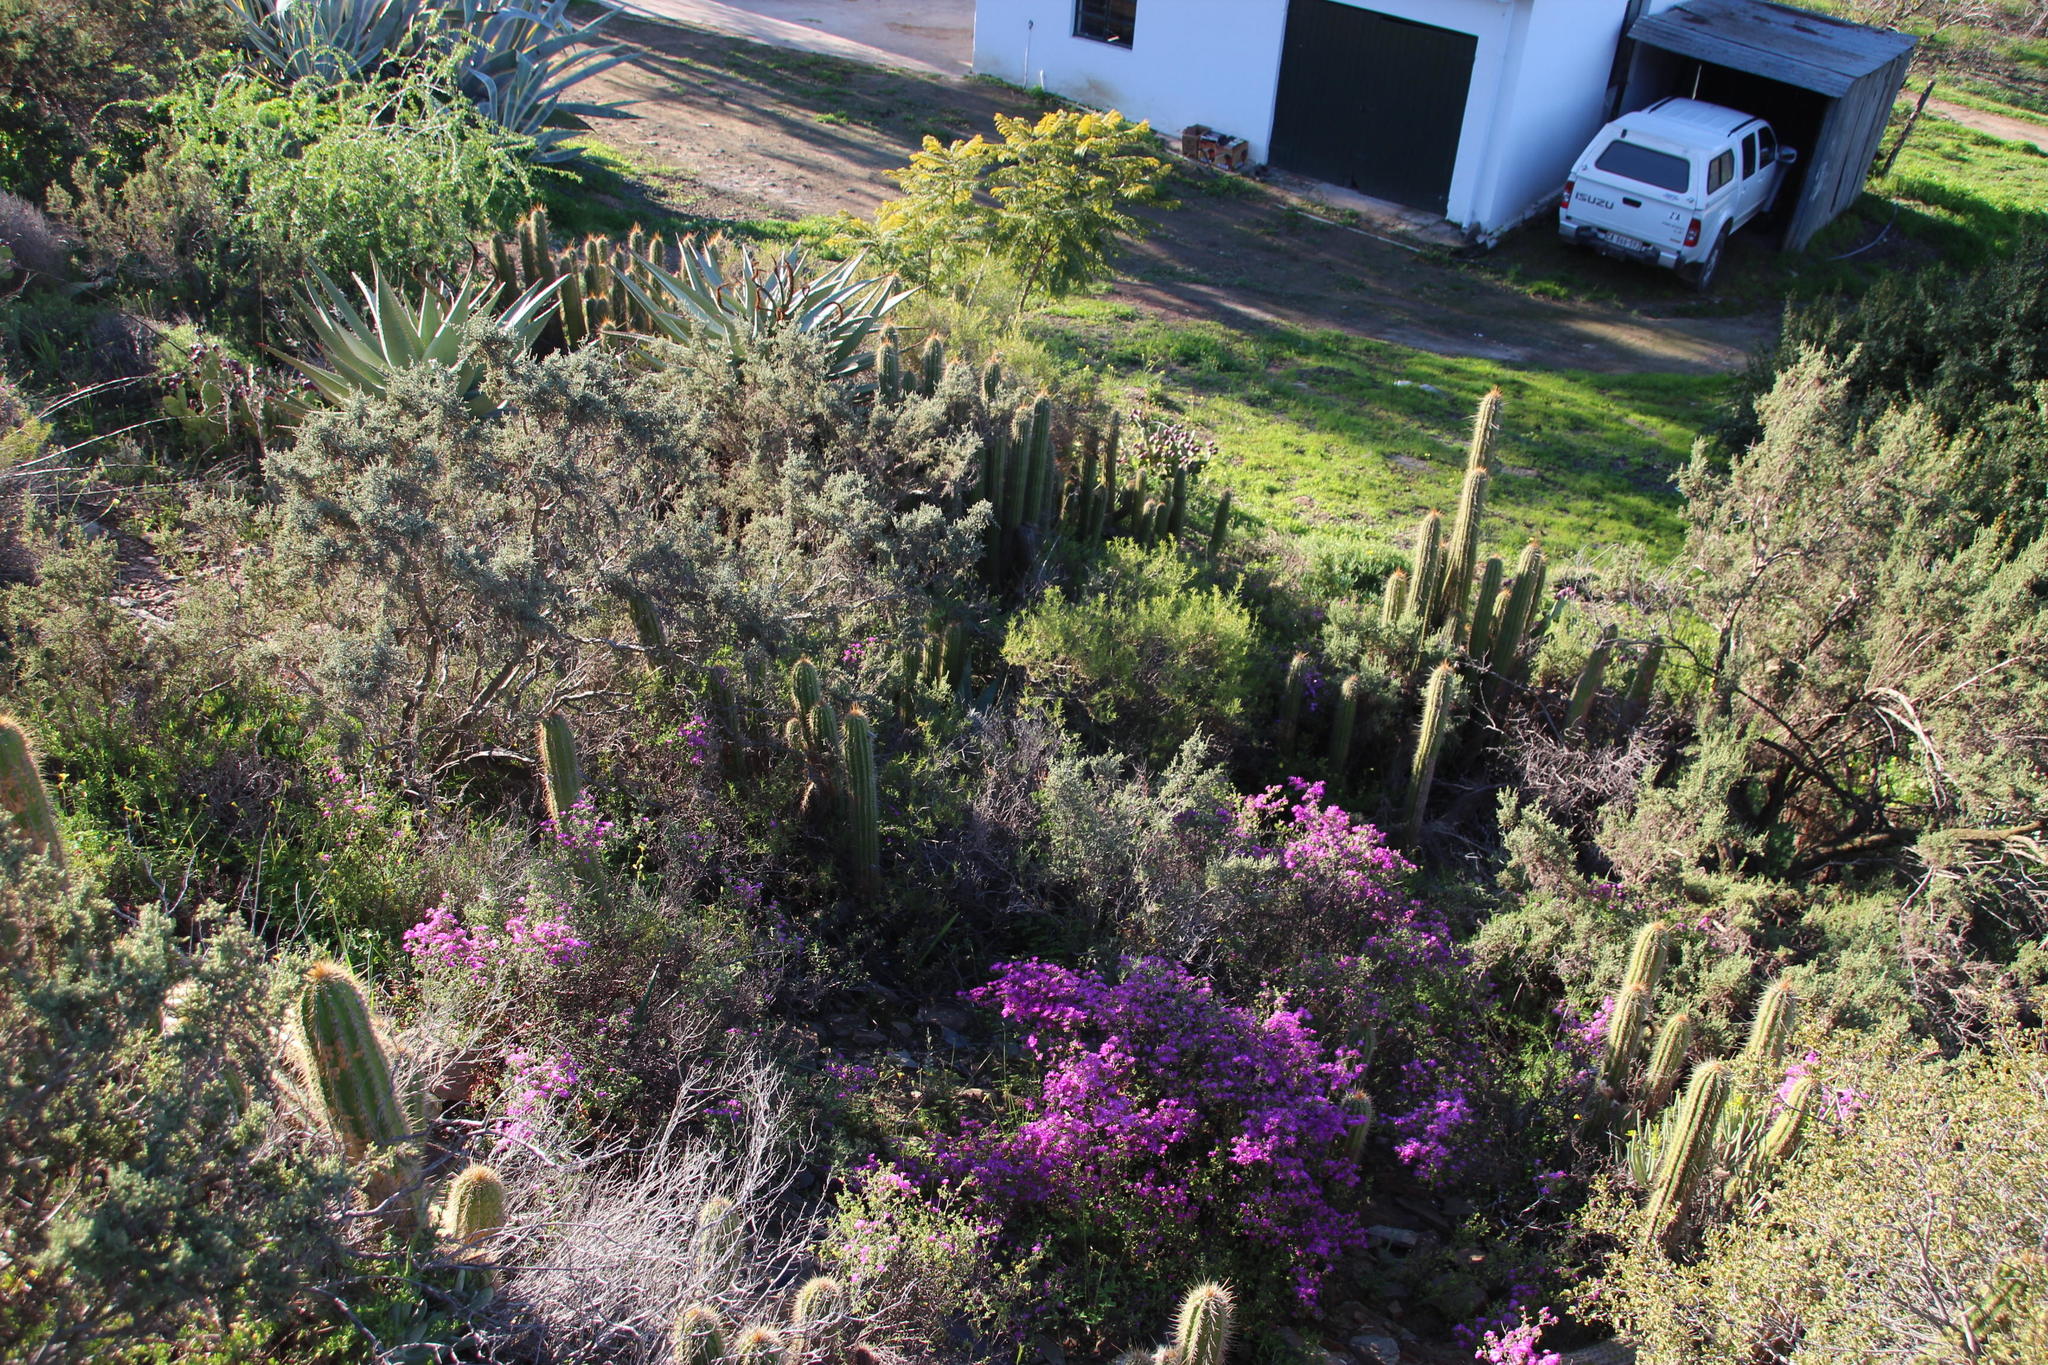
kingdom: Plantae
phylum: Tracheophyta
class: Magnoliopsida
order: Caryophyllales
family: Cactaceae
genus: Soehrensia
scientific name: Soehrensia spachiana
